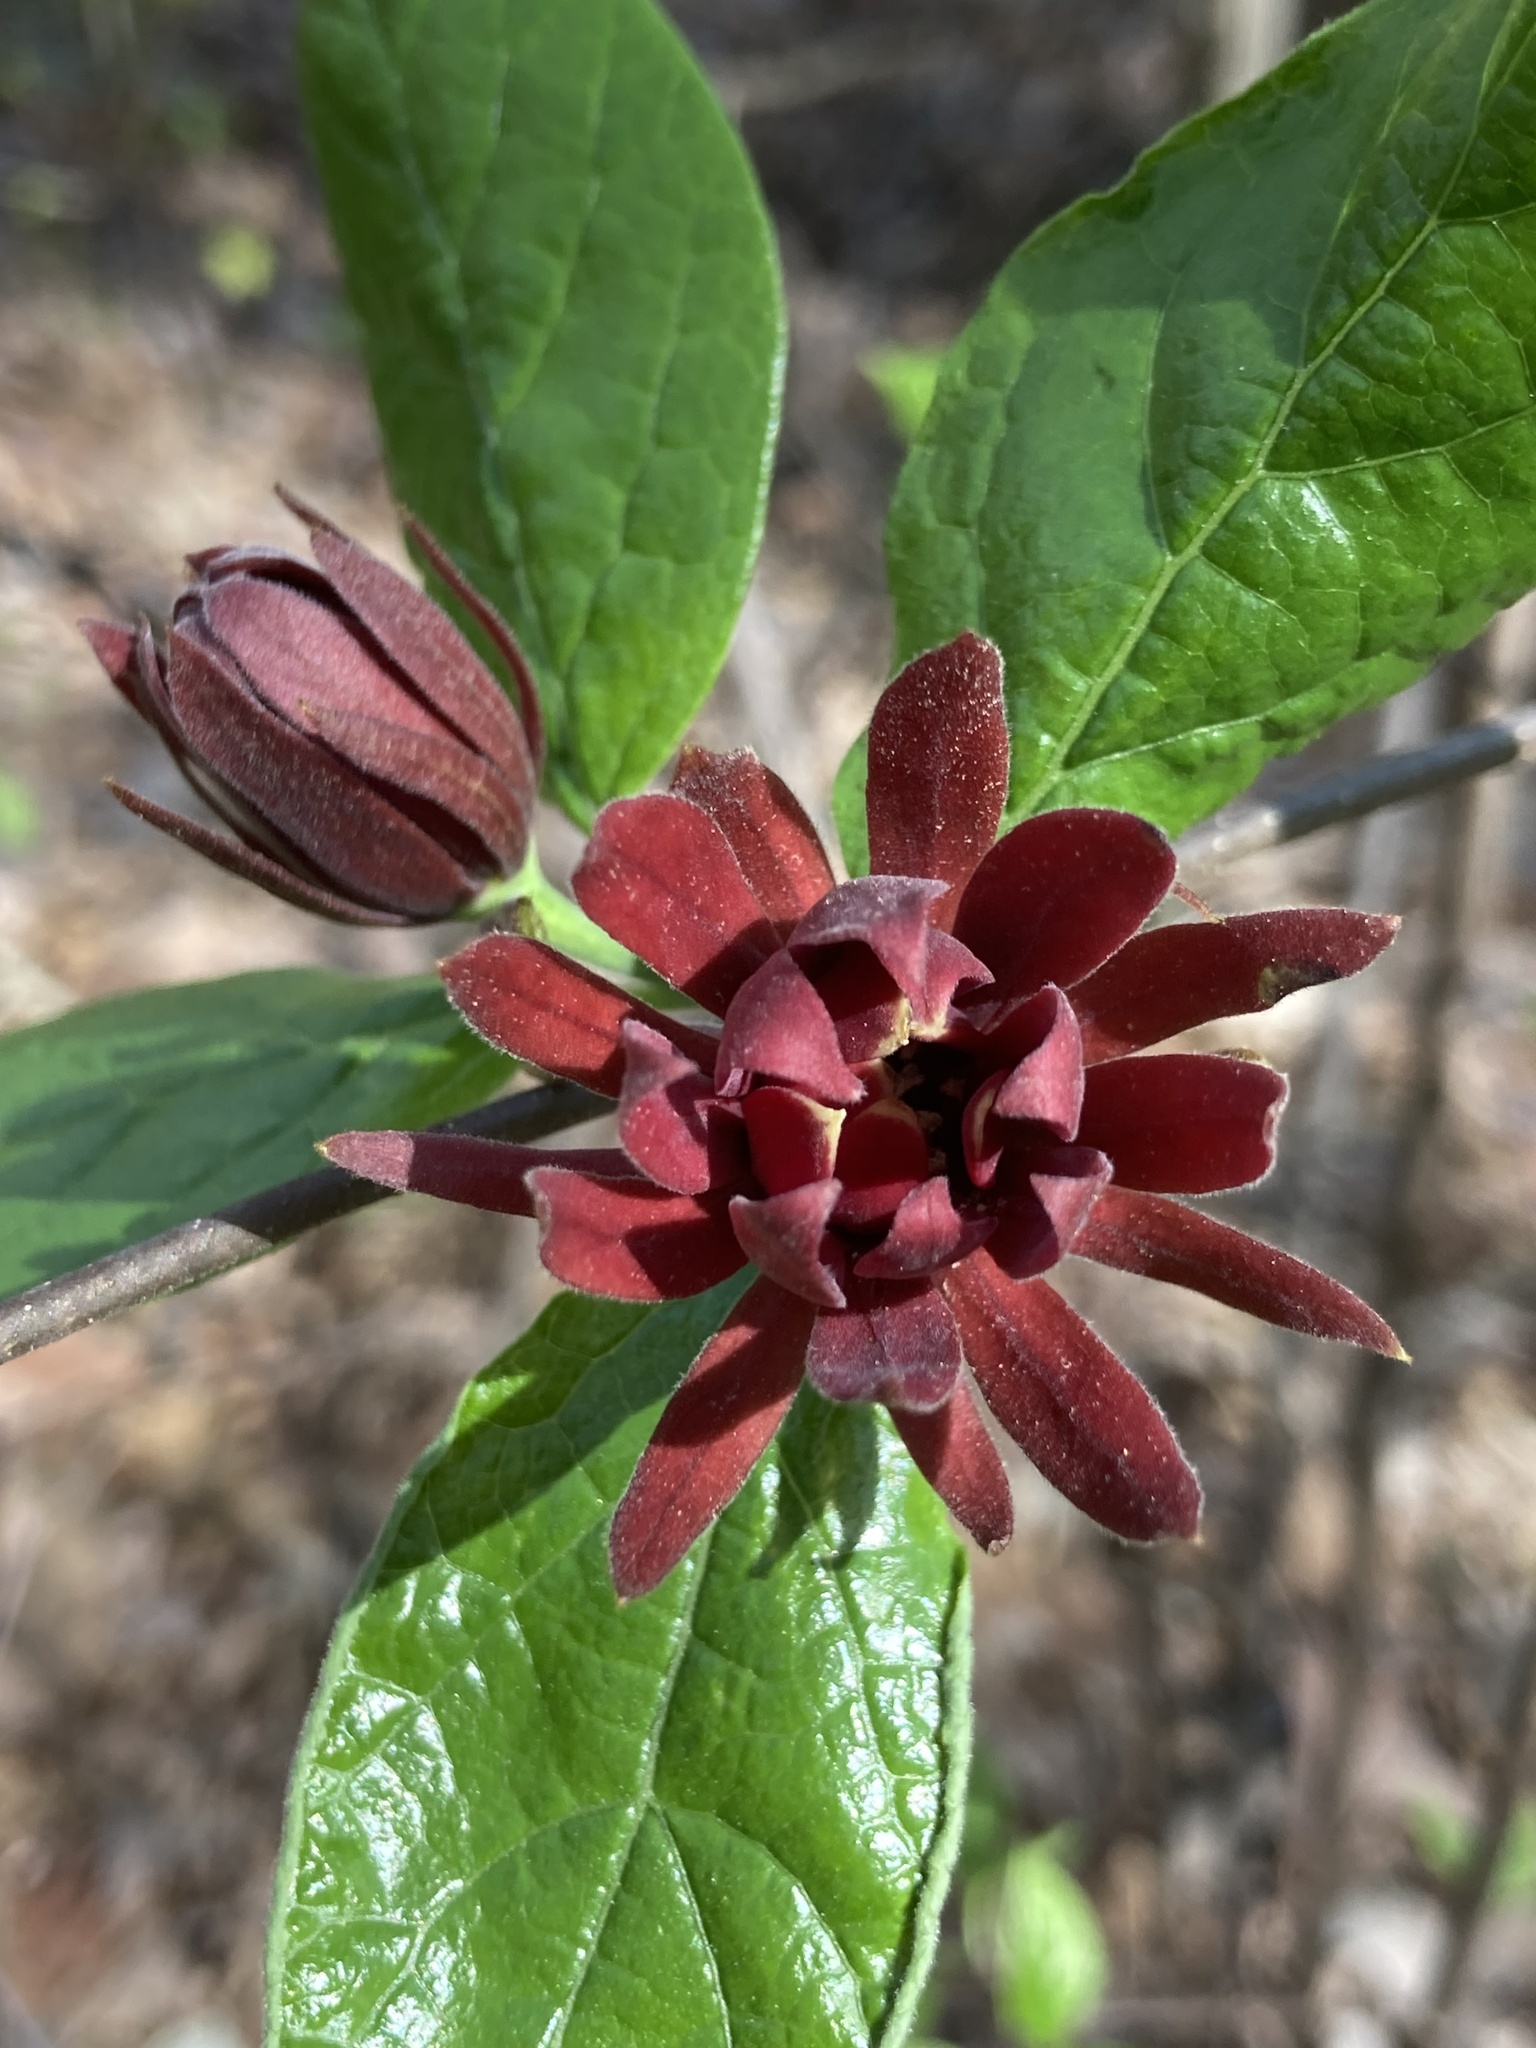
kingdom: Plantae
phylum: Tracheophyta
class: Magnoliopsida
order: Laurales
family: Calycanthaceae
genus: Calycanthus
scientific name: Calycanthus floridus
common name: Carolina-allspice
